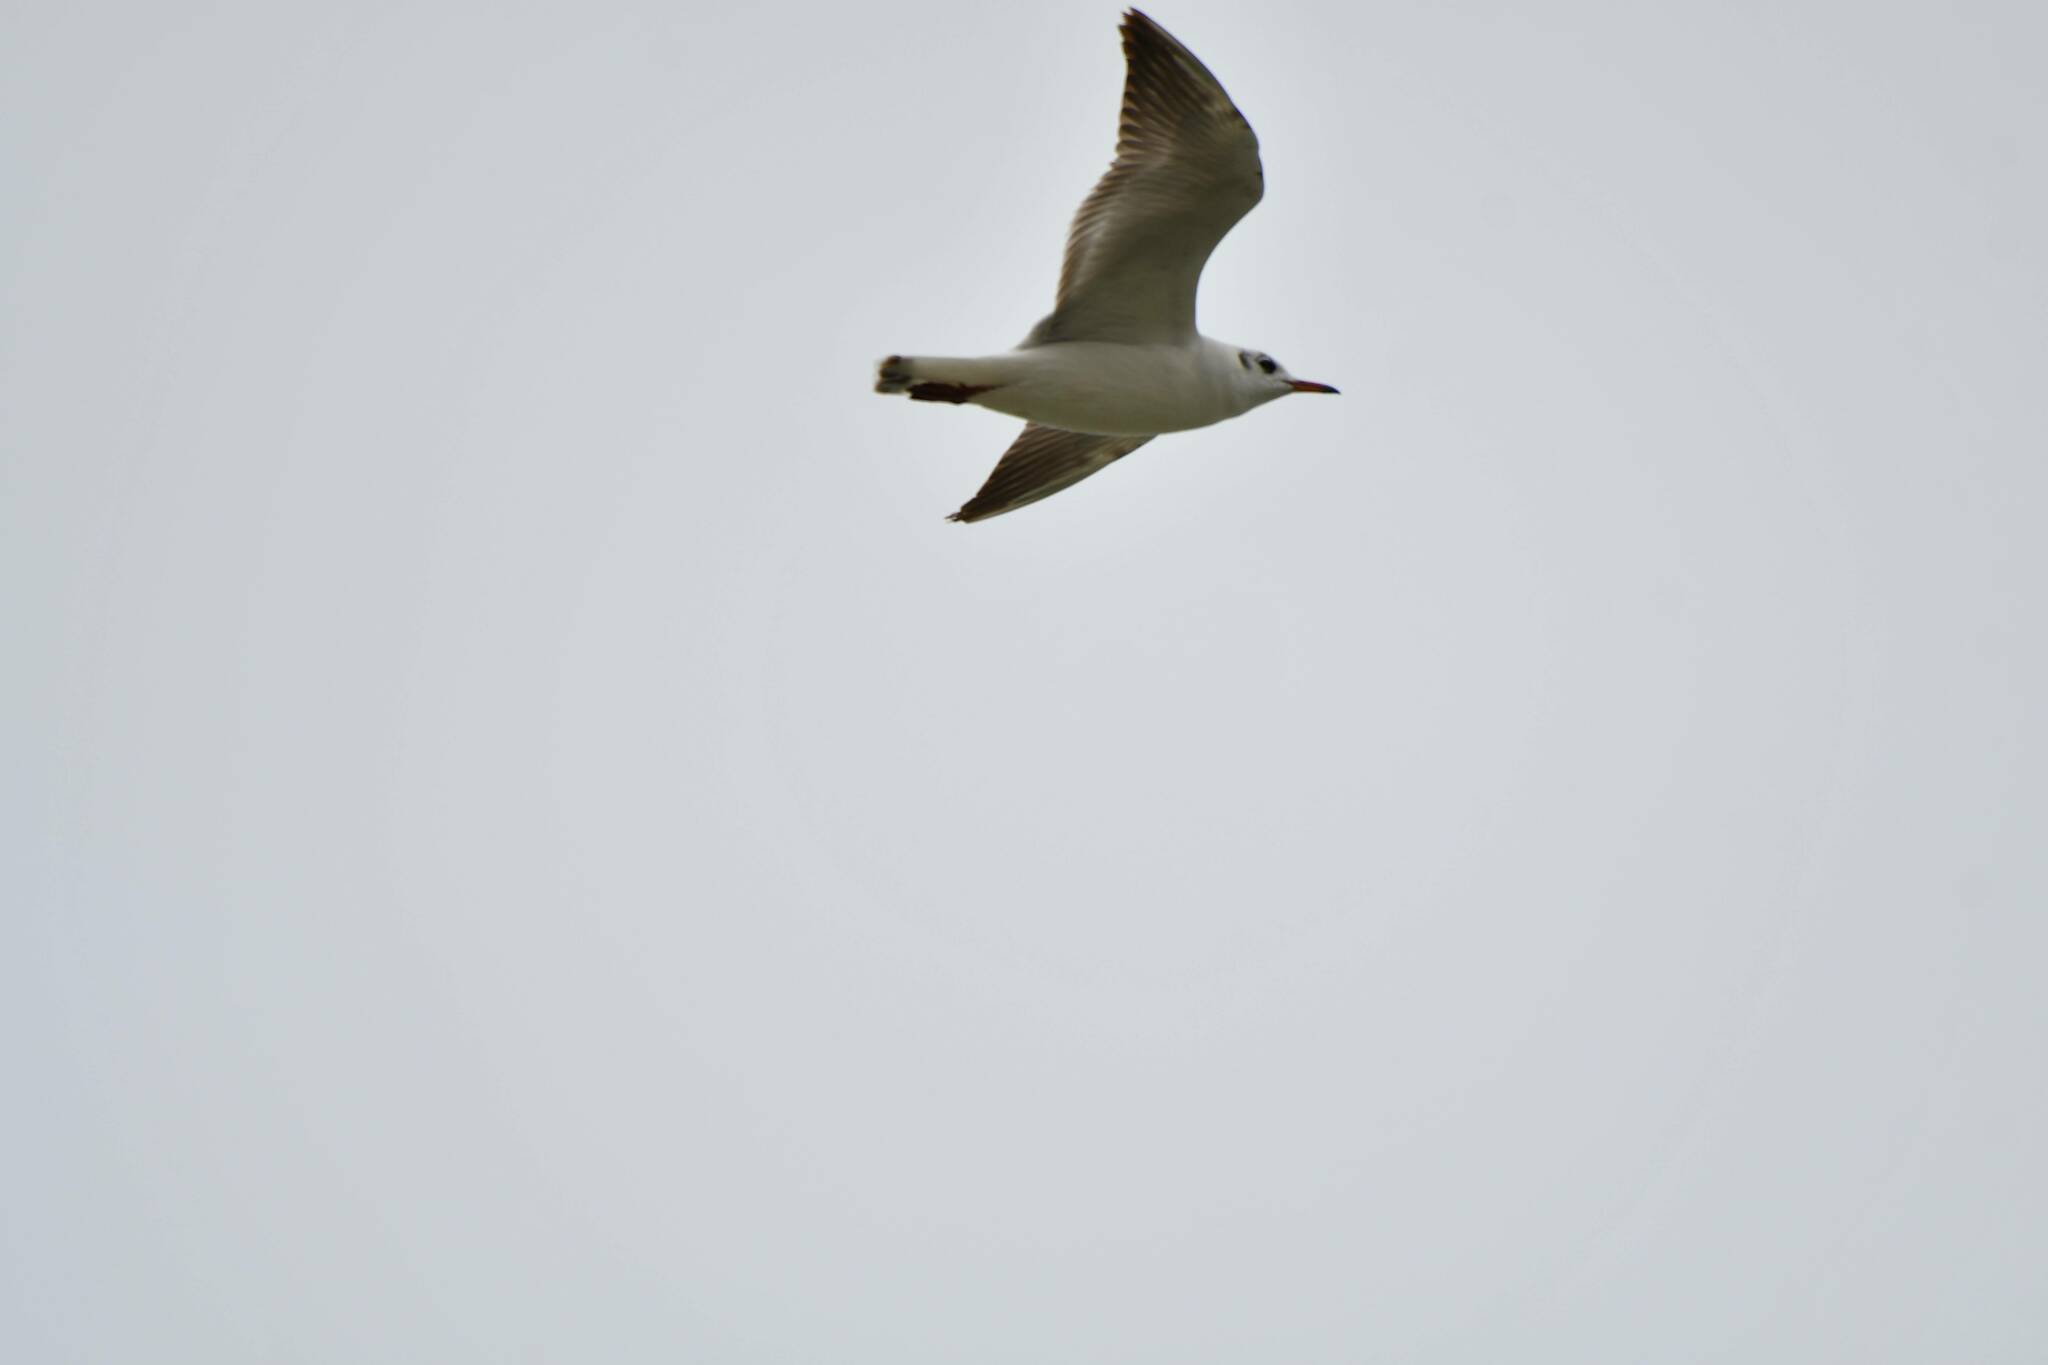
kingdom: Animalia
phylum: Chordata
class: Aves
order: Charadriiformes
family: Laridae
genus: Chroicocephalus
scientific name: Chroicocephalus ridibundus
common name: Black-headed gull
